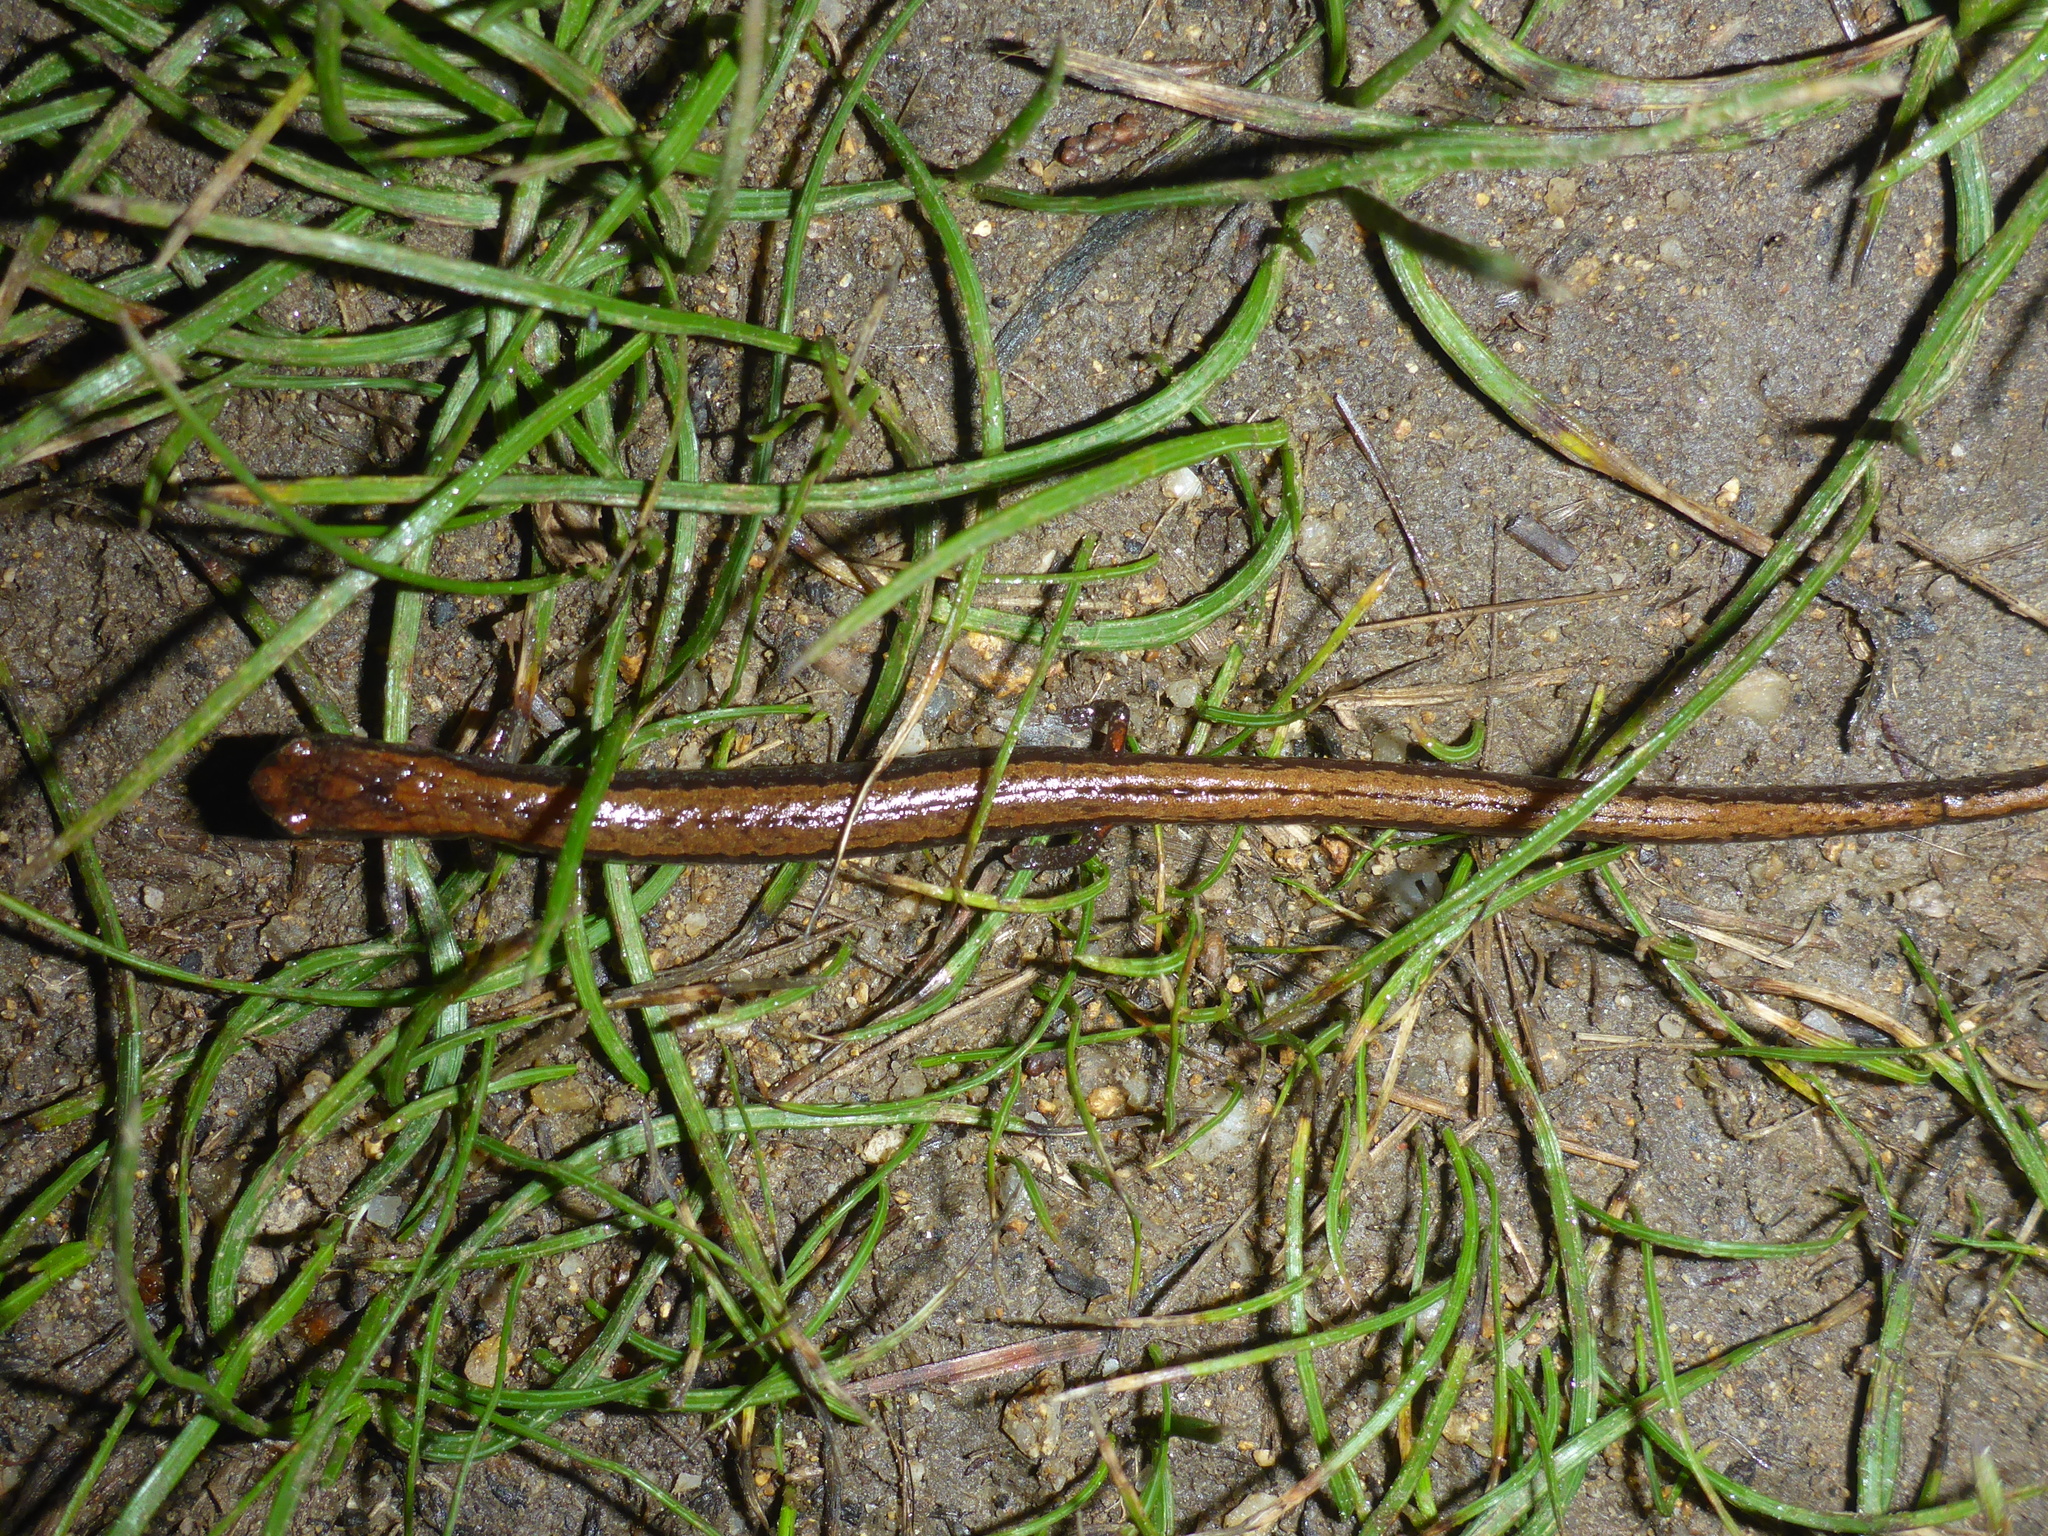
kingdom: Animalia
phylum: Chordata
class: Amphibia
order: Caudata
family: Plethodontidae
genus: Batrachoseps
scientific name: Batrachoseps attenuatus
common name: California slender salamander
